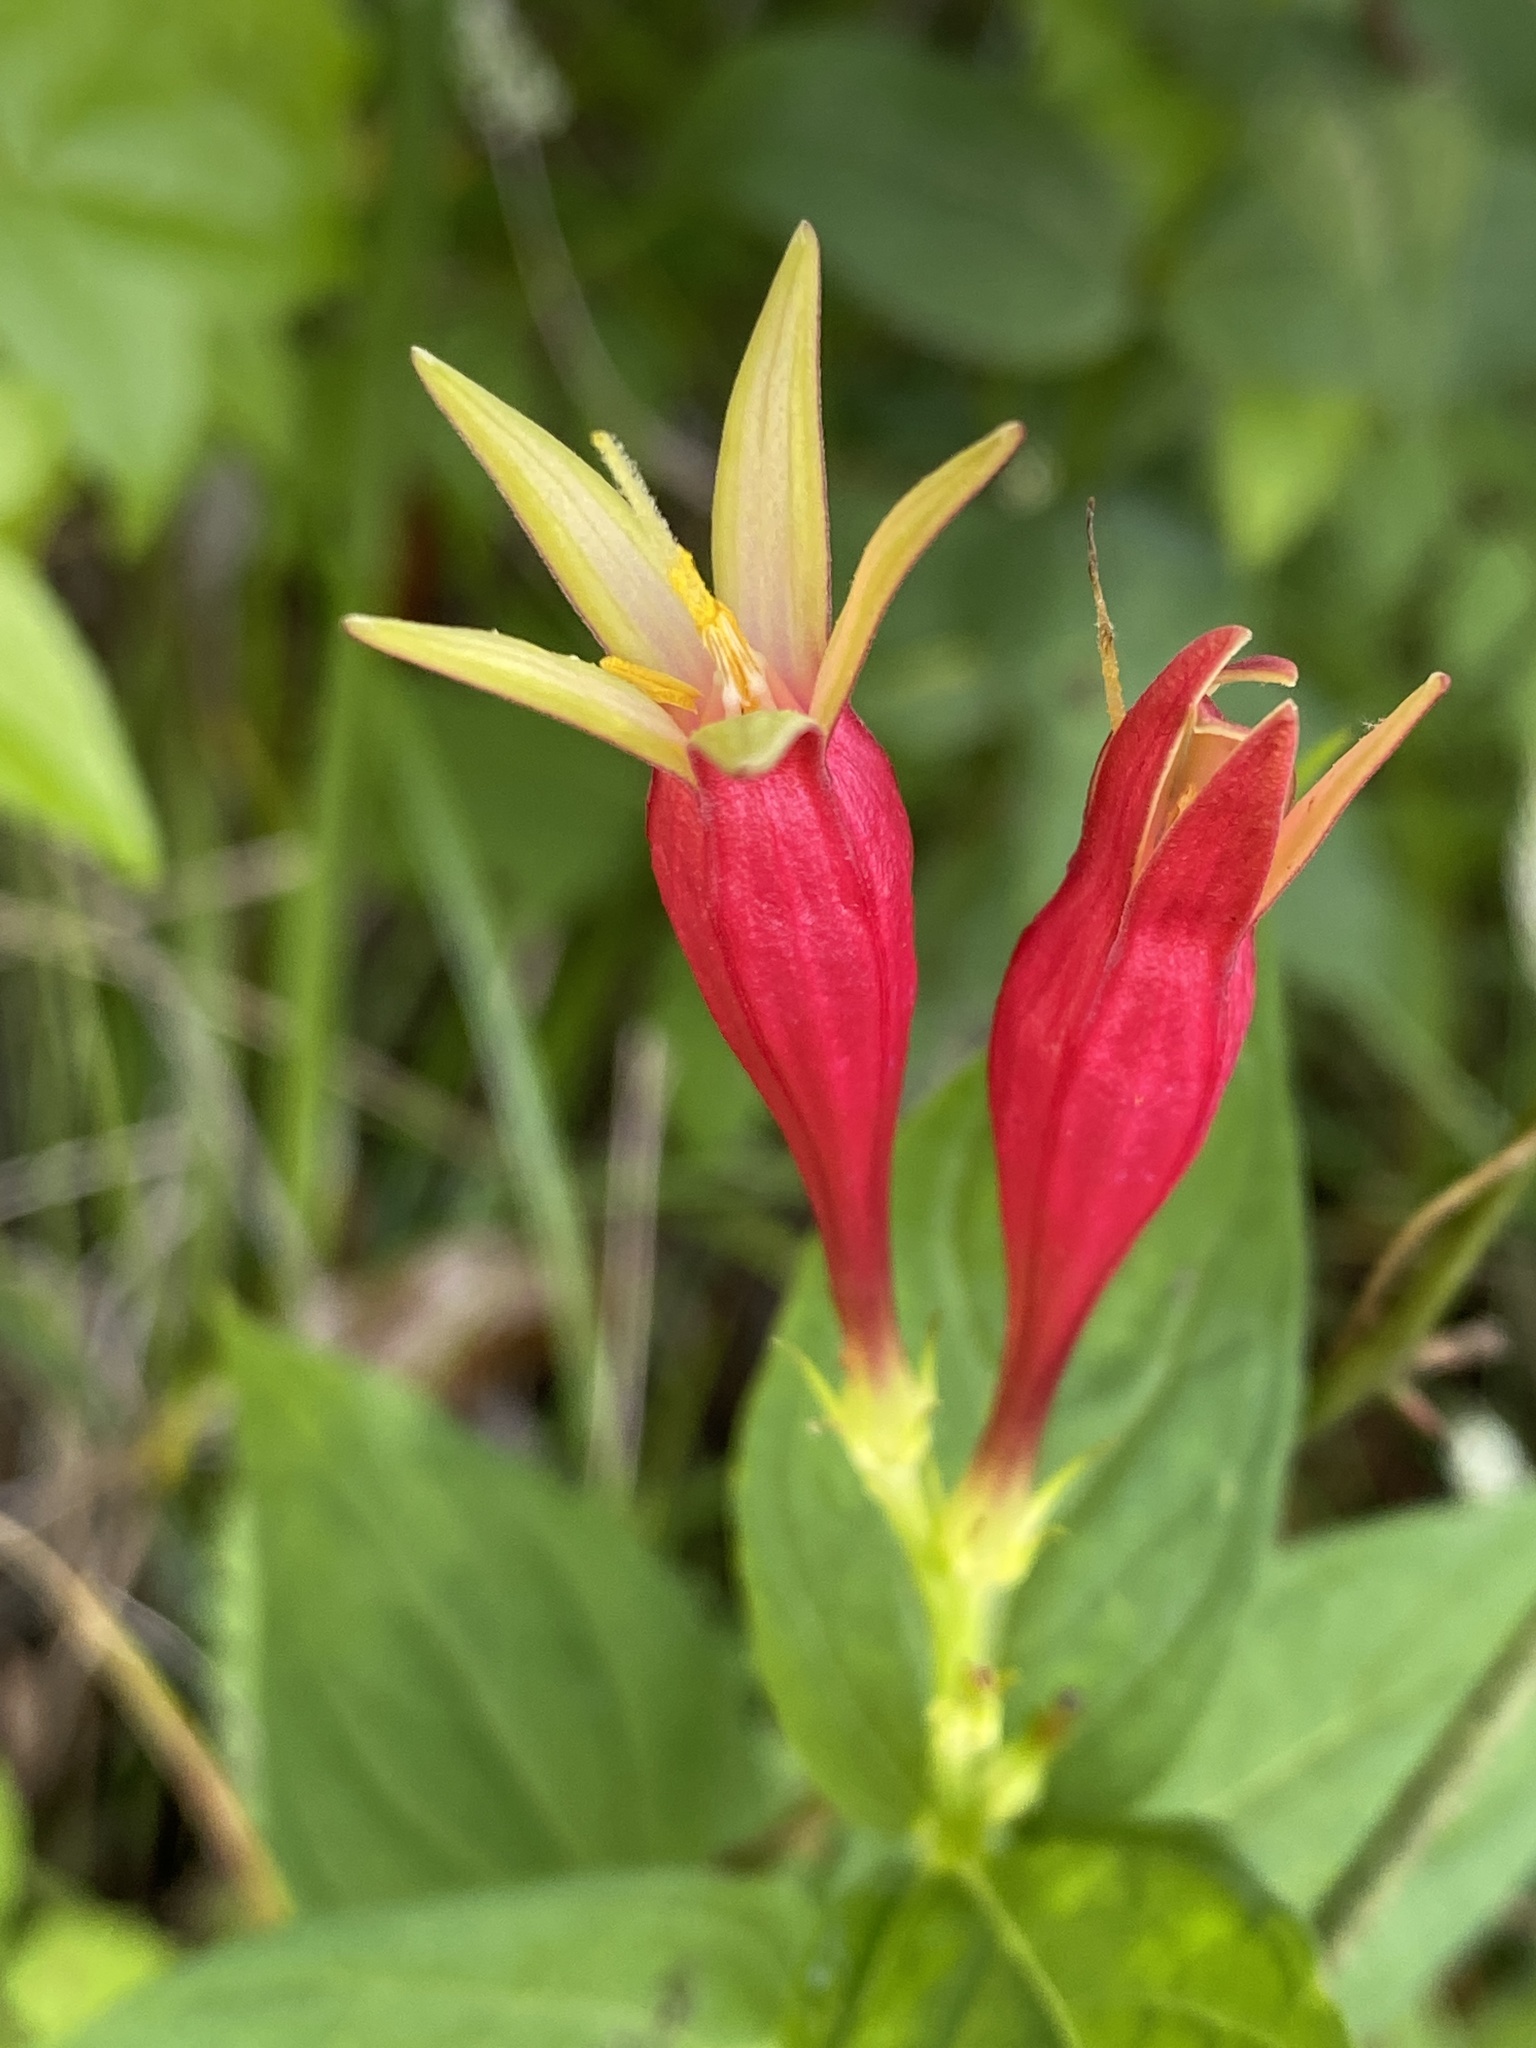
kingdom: Plantae
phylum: Tracheophyta
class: Magnoliopsida
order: Gentianales
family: Loganiaceae
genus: Spigelia
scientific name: Spigelia marilandica
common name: Indian-pink
